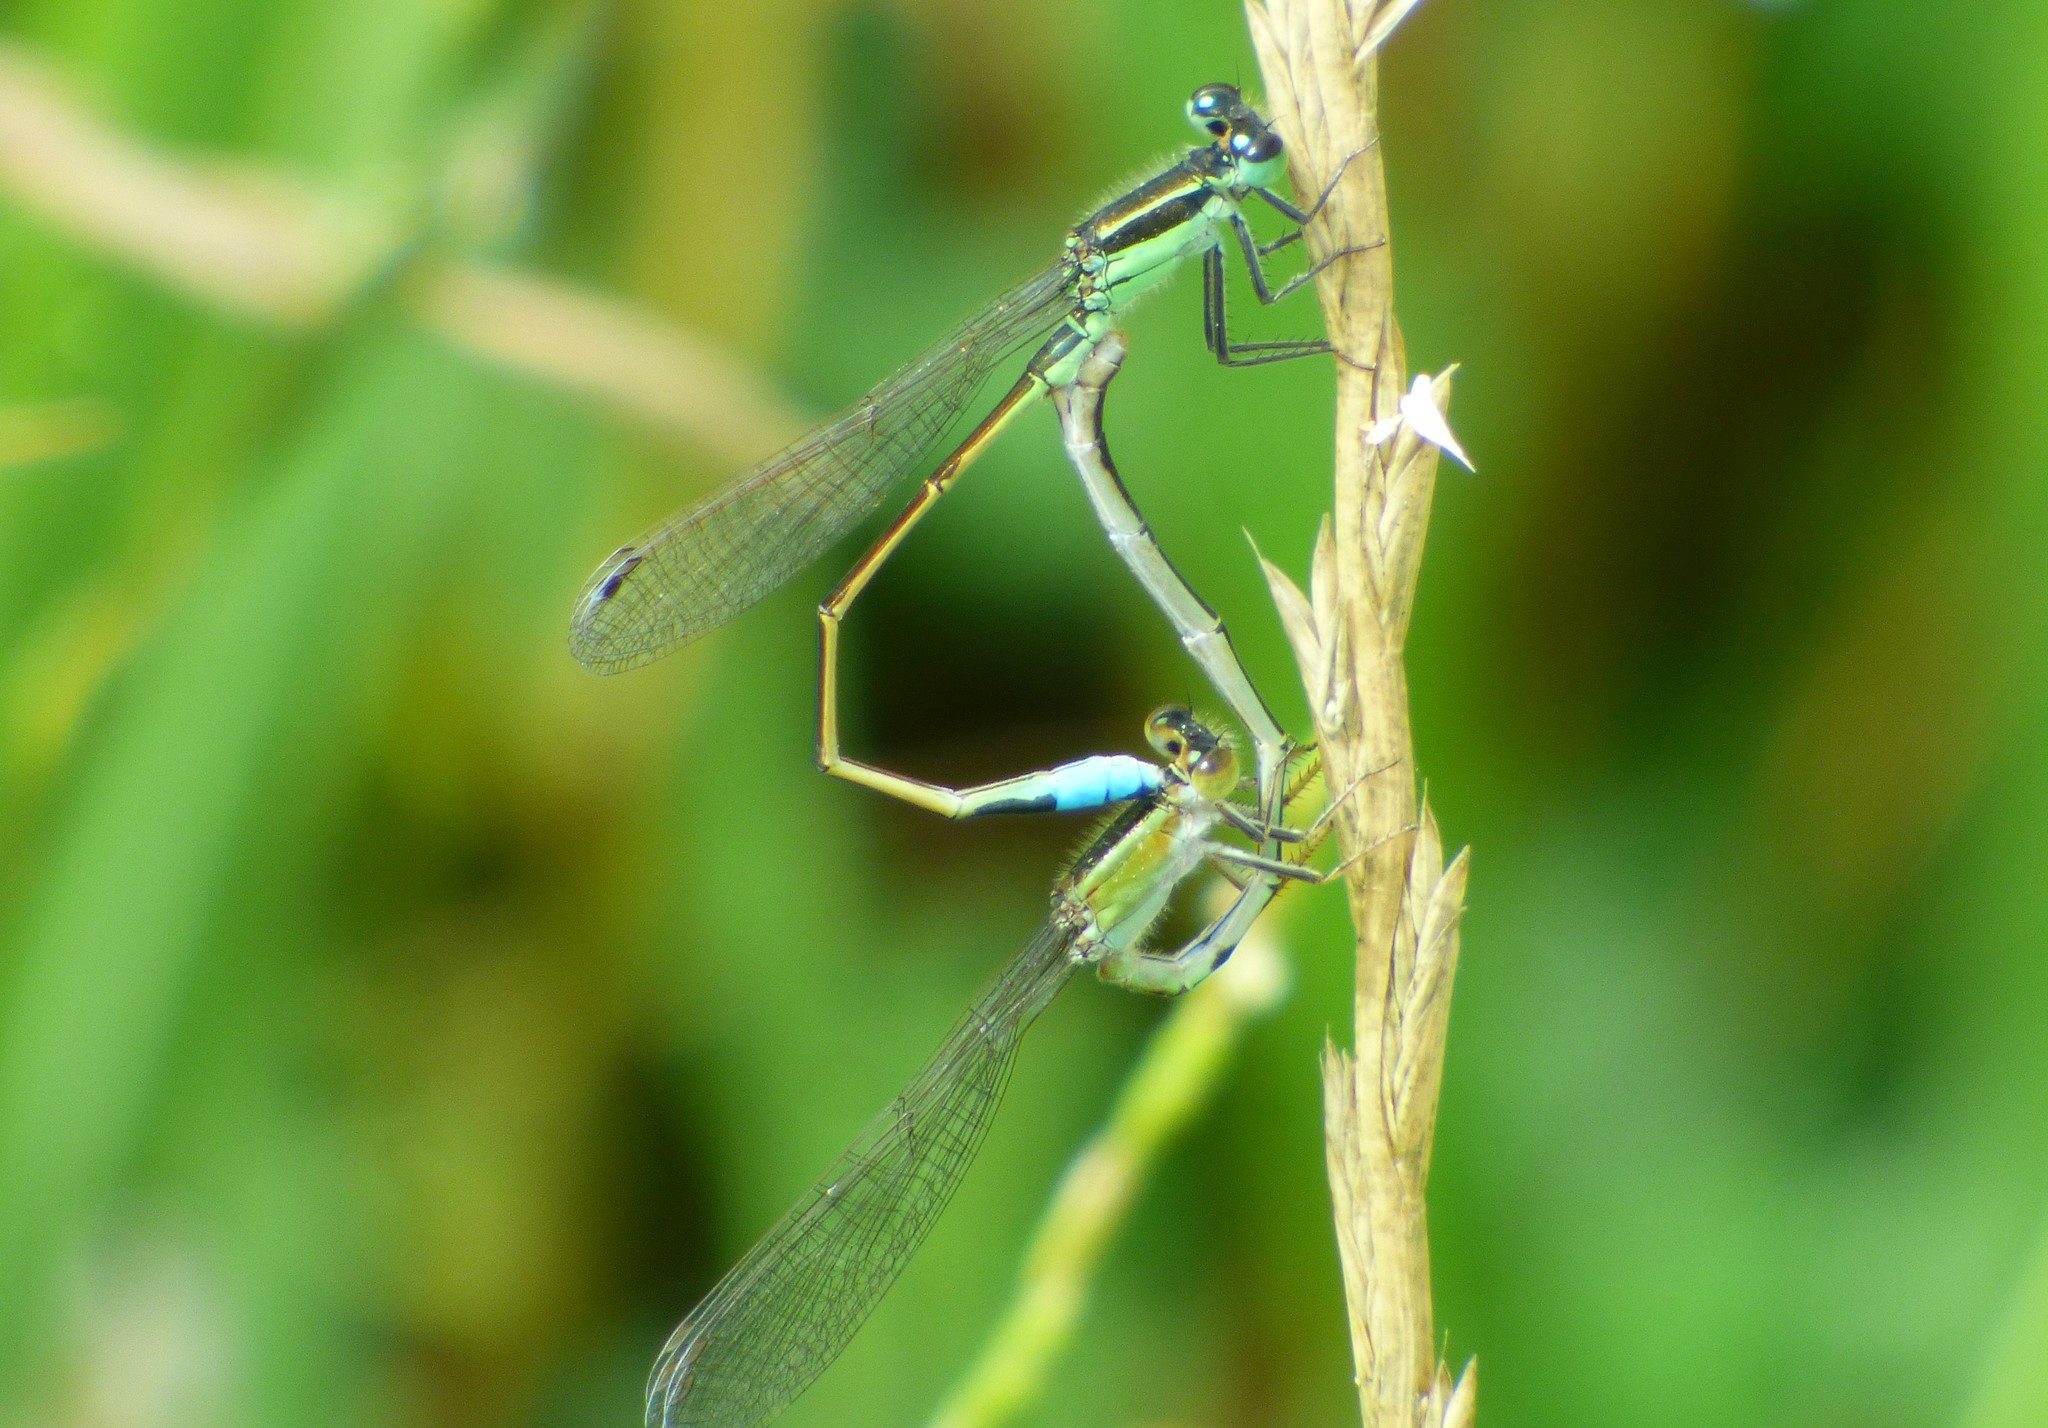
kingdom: Animalia
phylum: Arthropoda
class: Insecta
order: Odonata
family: Coenagrionidae
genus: Ischnura
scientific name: Ischnura ramburii
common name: Rambur's forktail
